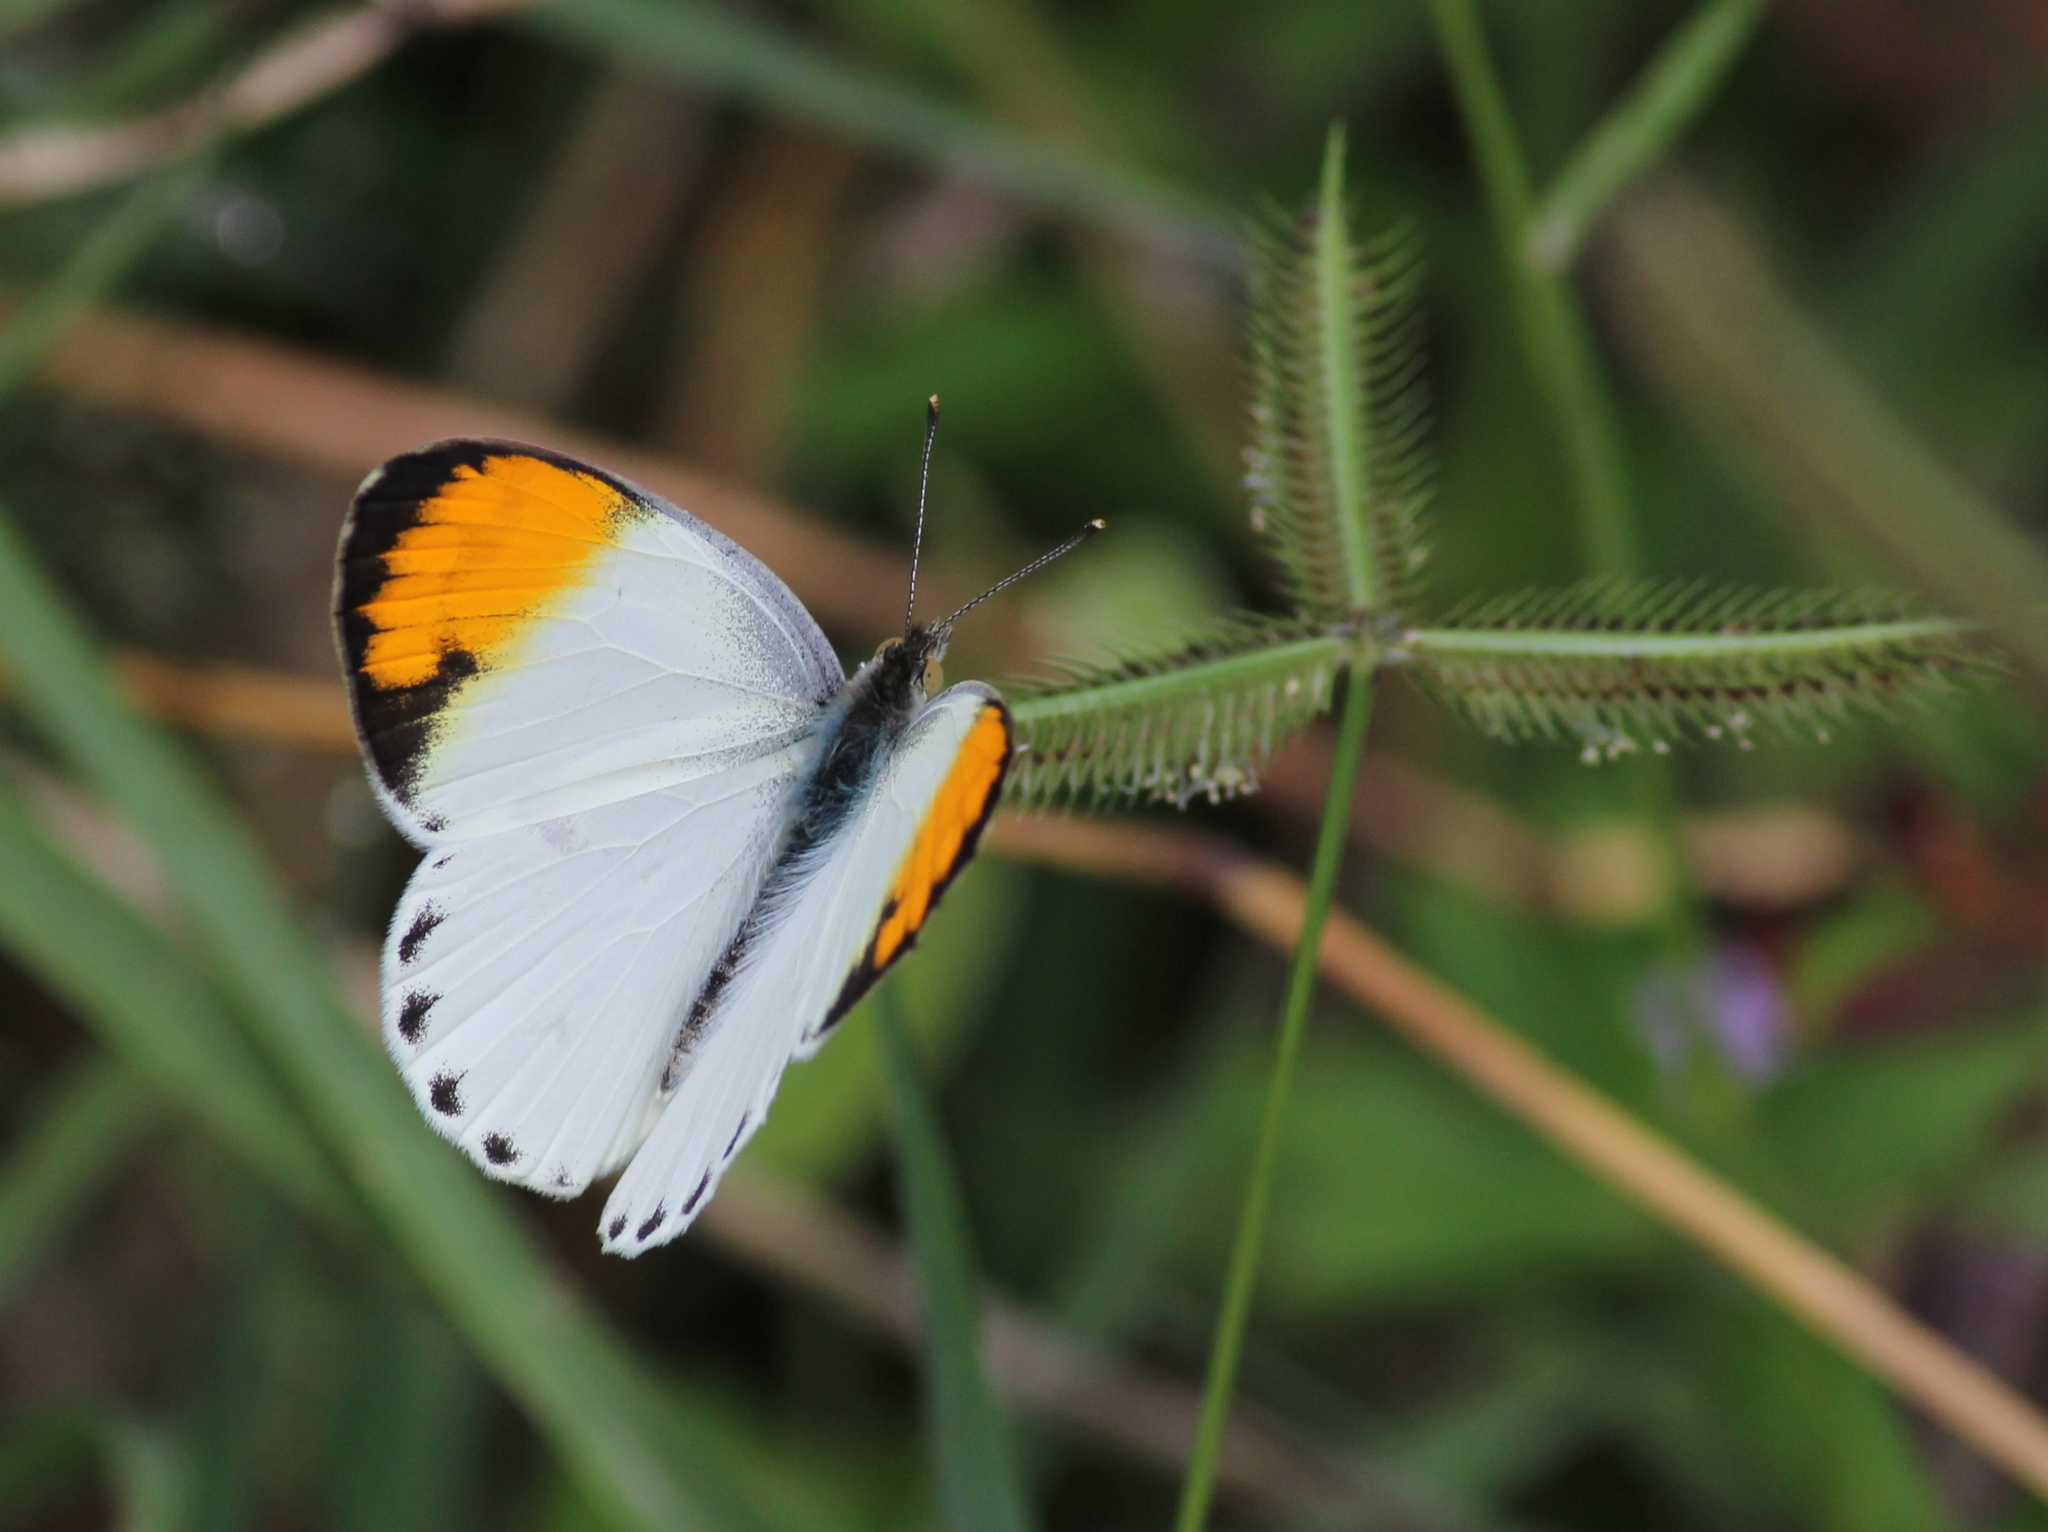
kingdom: Animalia
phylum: Arthropoda
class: Insecta
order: Lepidoptera
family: Pieridae
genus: Colotis
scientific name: Colotis aurora
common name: Plain orange-tip
